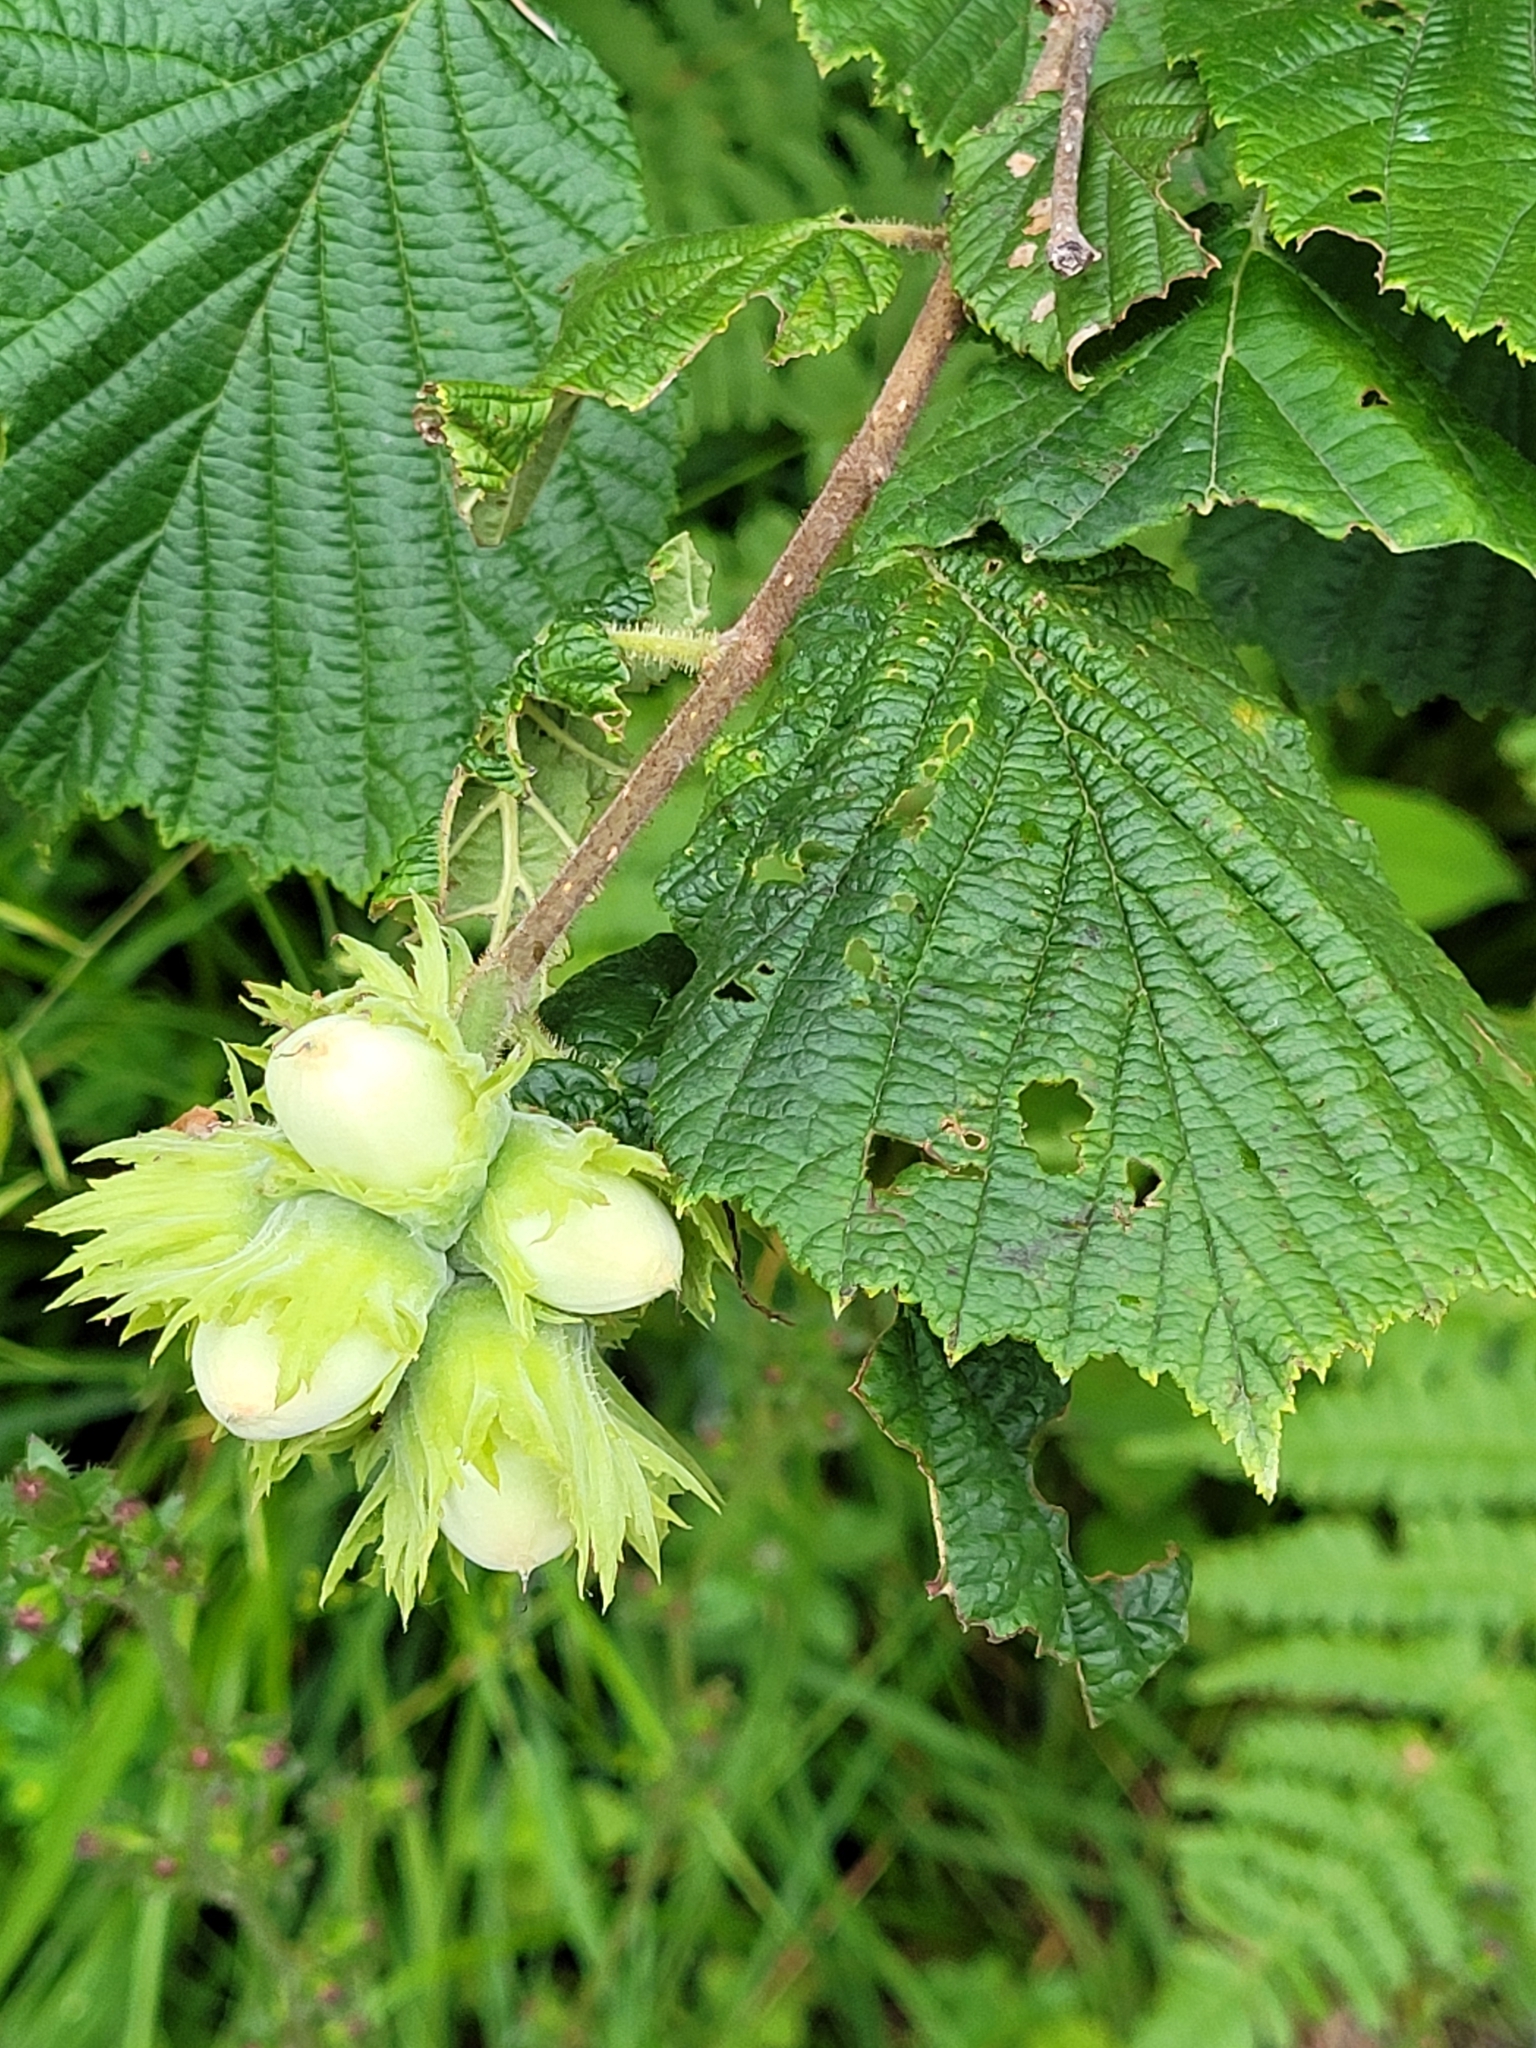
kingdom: Plantae
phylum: Tracheophyta
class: Magnoliopsida
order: Fagales
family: Betulaceae
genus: Corylus
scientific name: Corylus avellana
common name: European hazel
